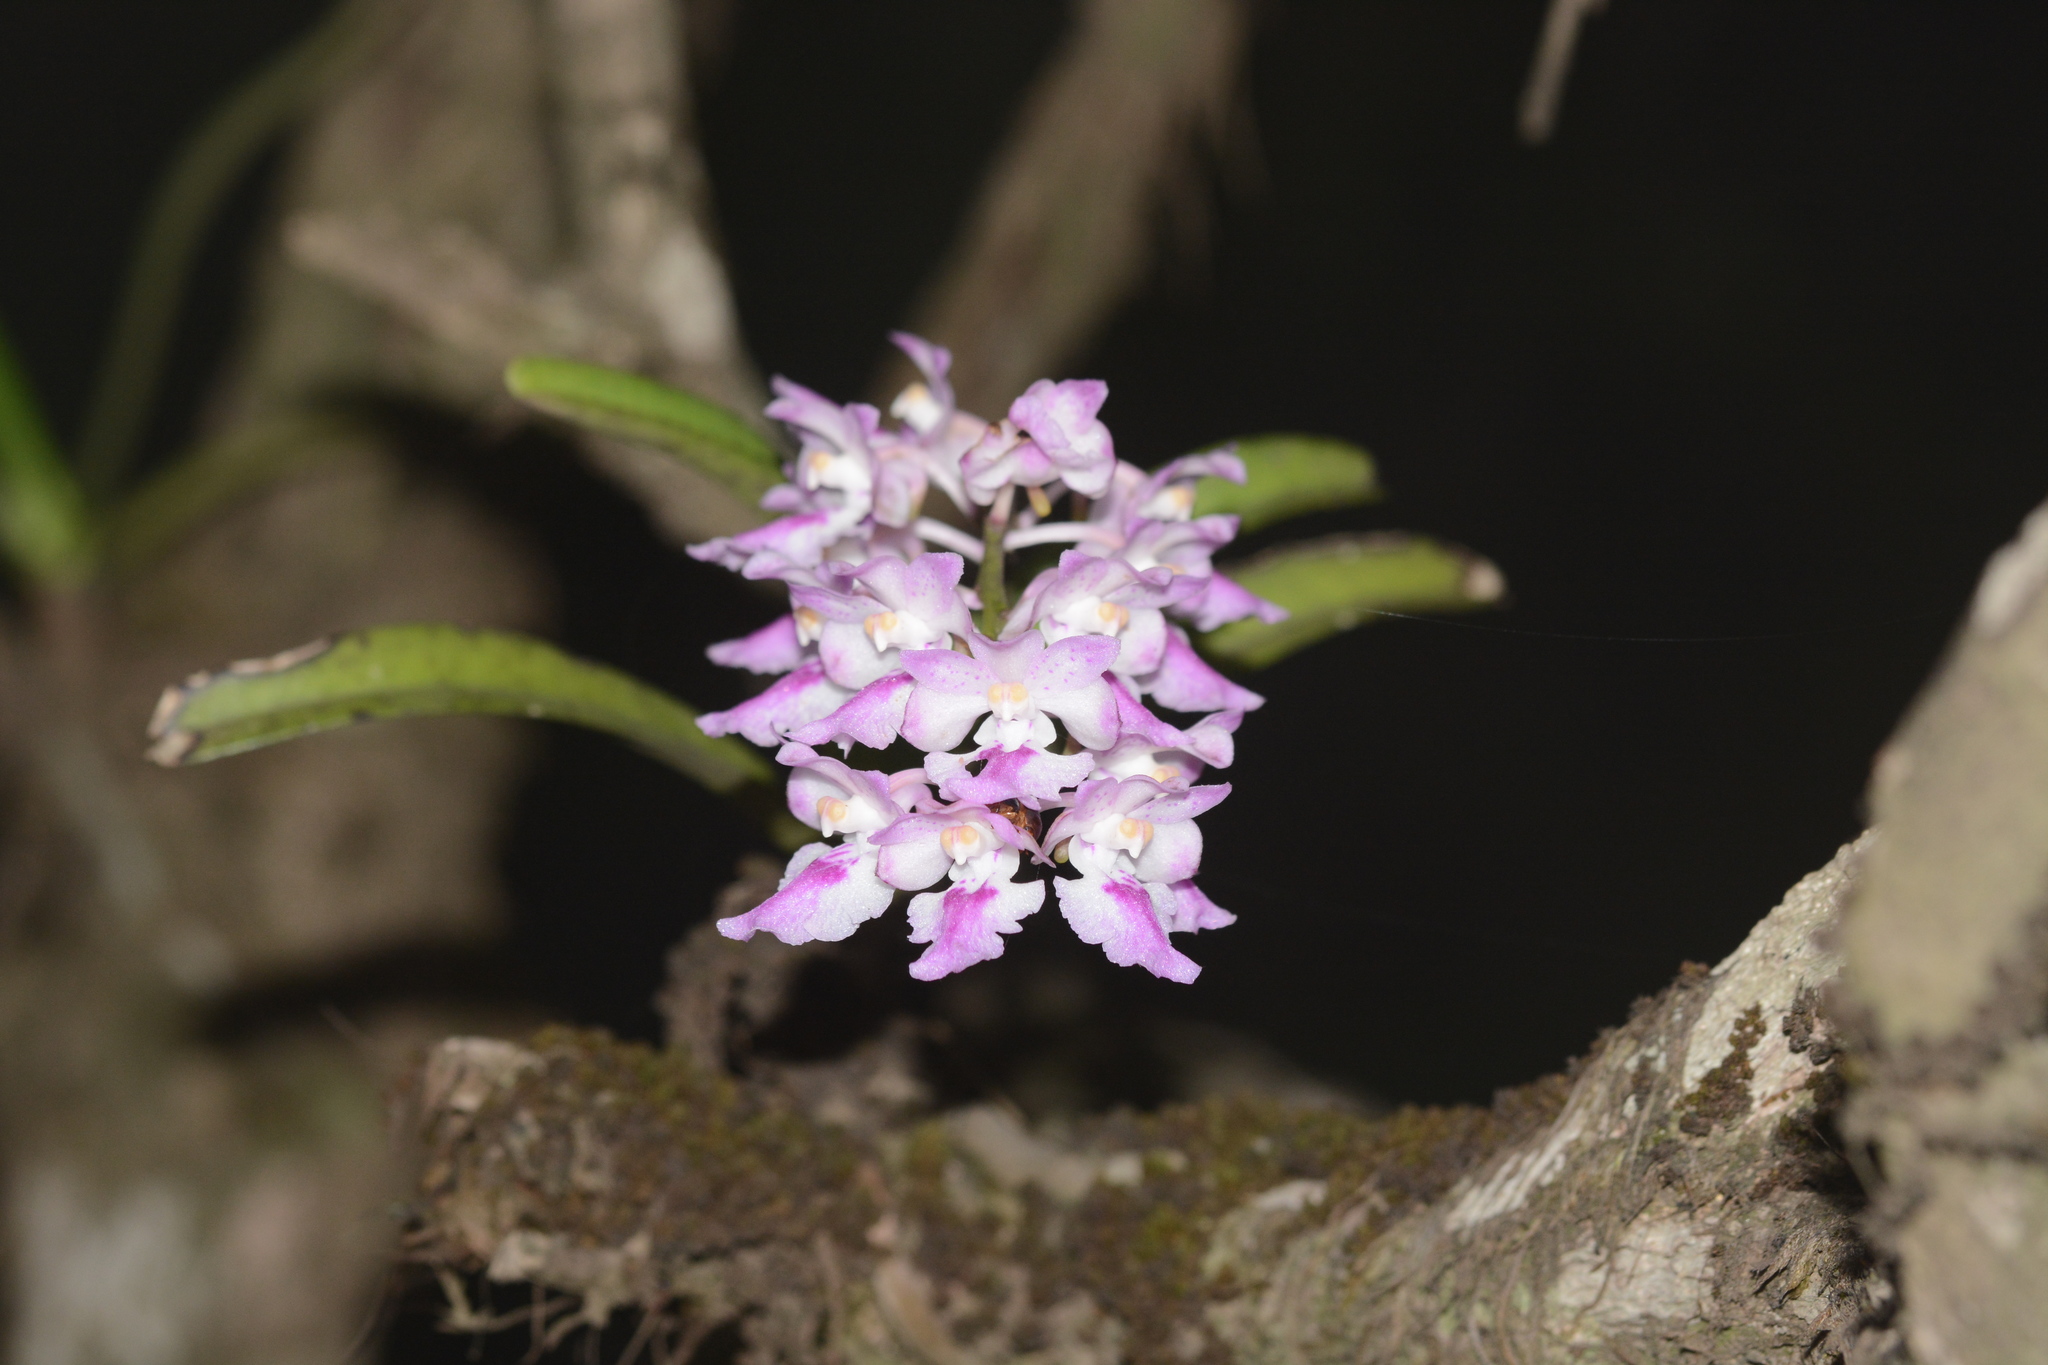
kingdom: Plantae
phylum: Tracheophyta
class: Liliopsida
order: Asparagales
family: Orchidaceae
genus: Aerides
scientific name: Aerides maculosa
